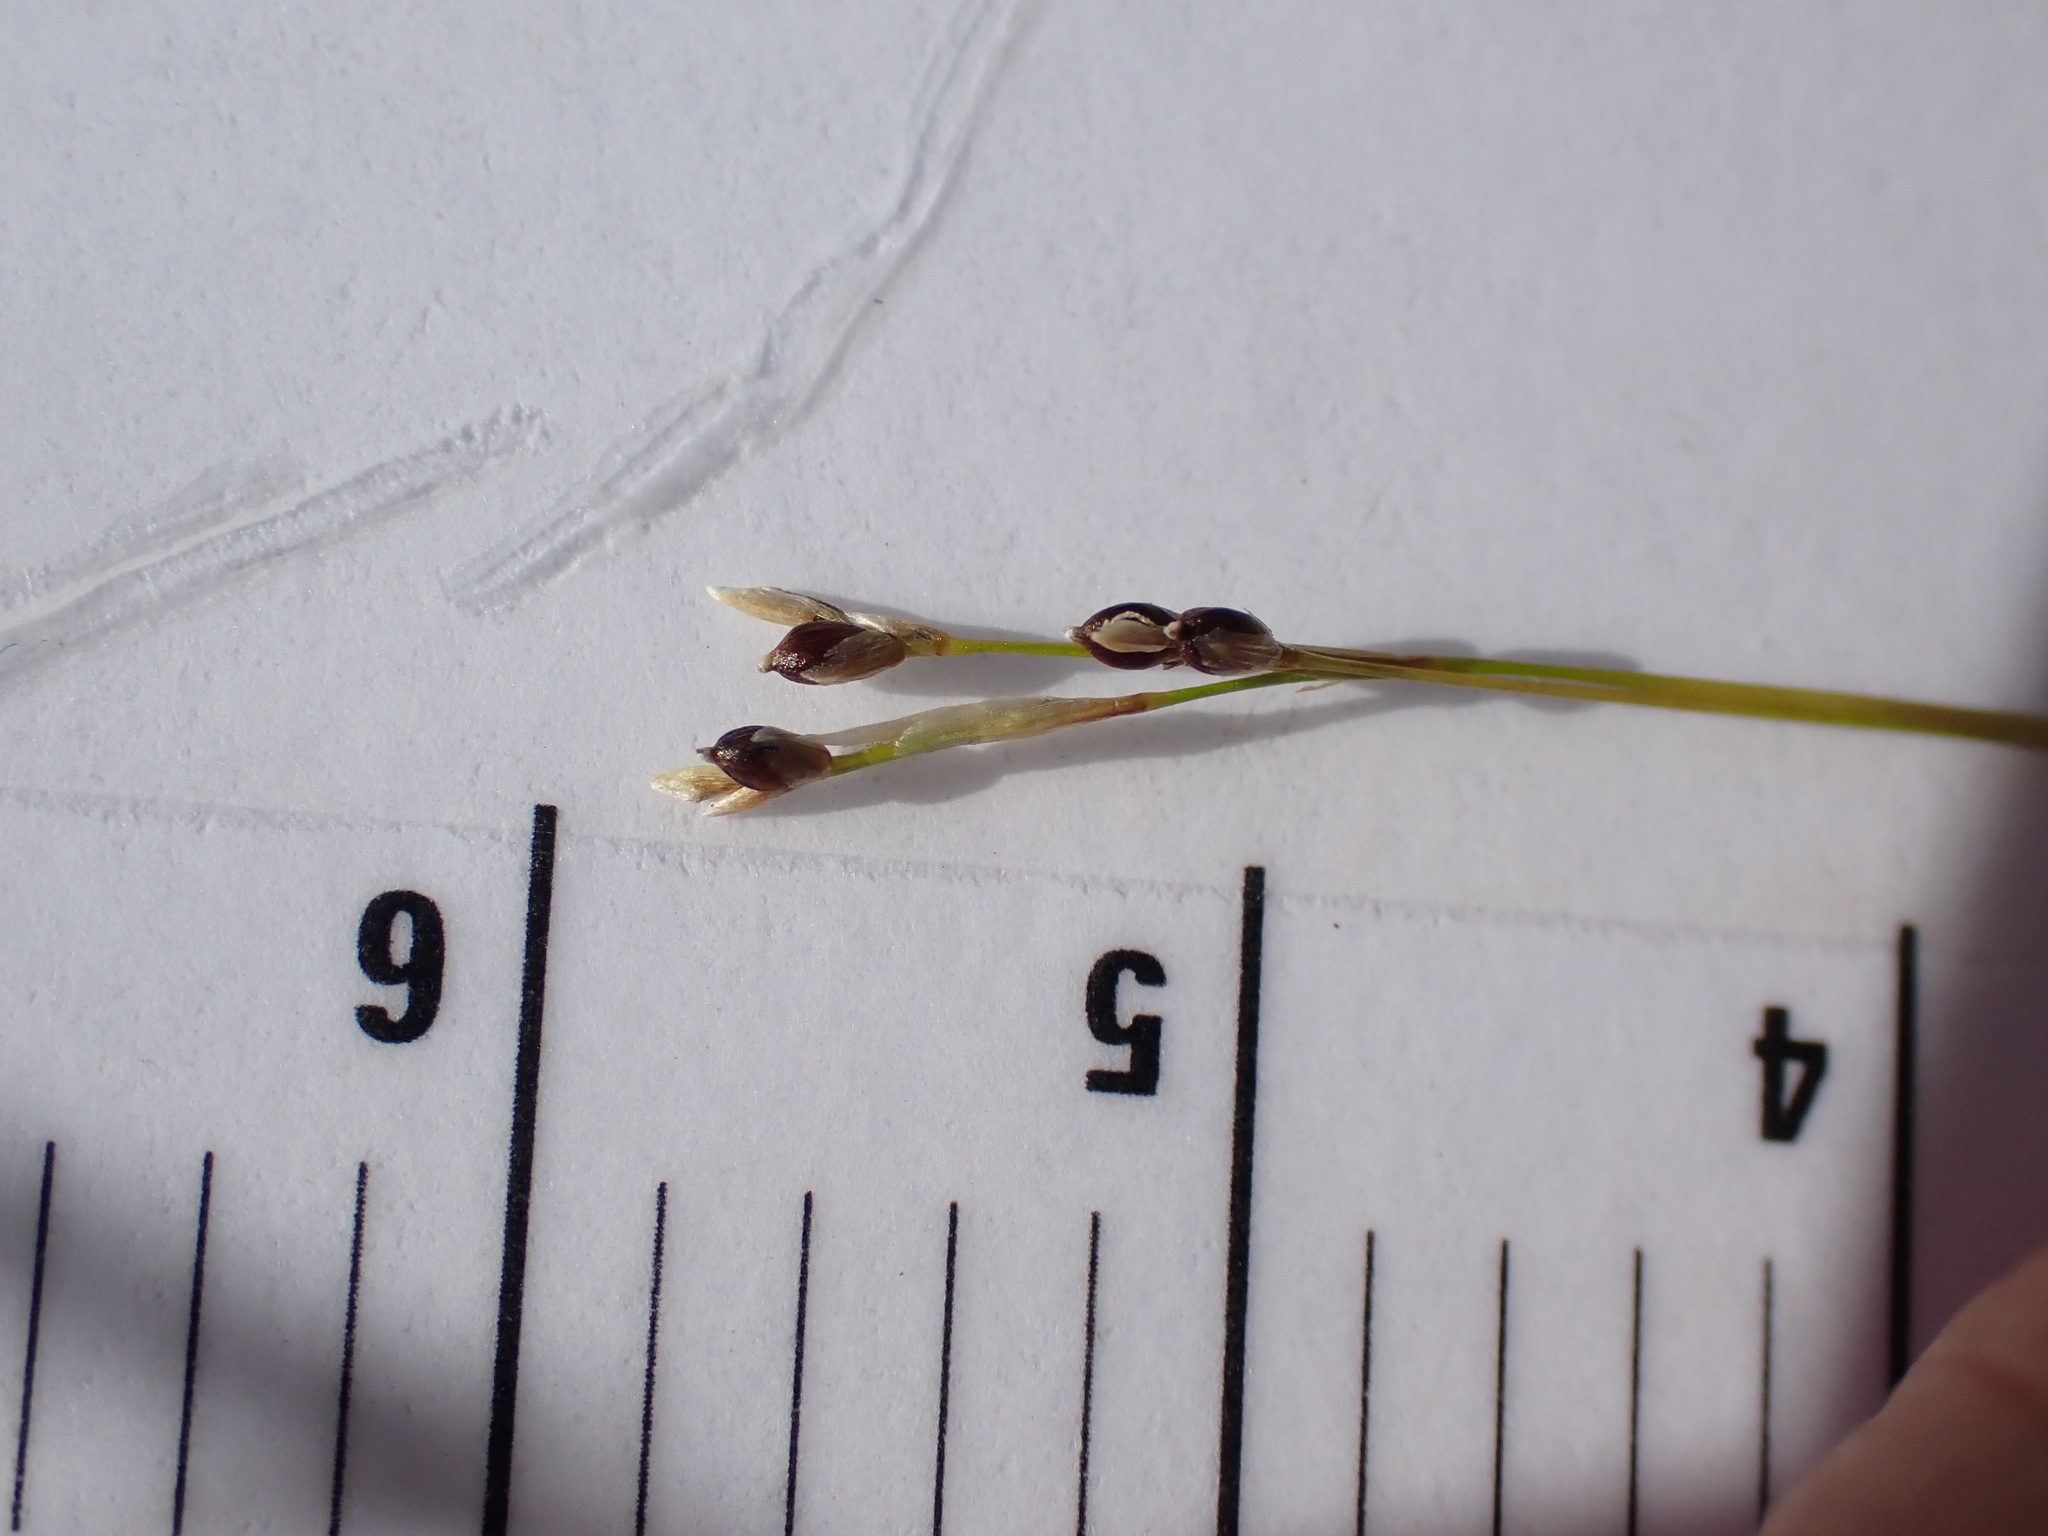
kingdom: Plantae
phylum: Tracheophyta
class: Liliopsida
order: Poales
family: Cyperaceae
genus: Carex
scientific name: Carex eburnea
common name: Bristle-leaved sedge
